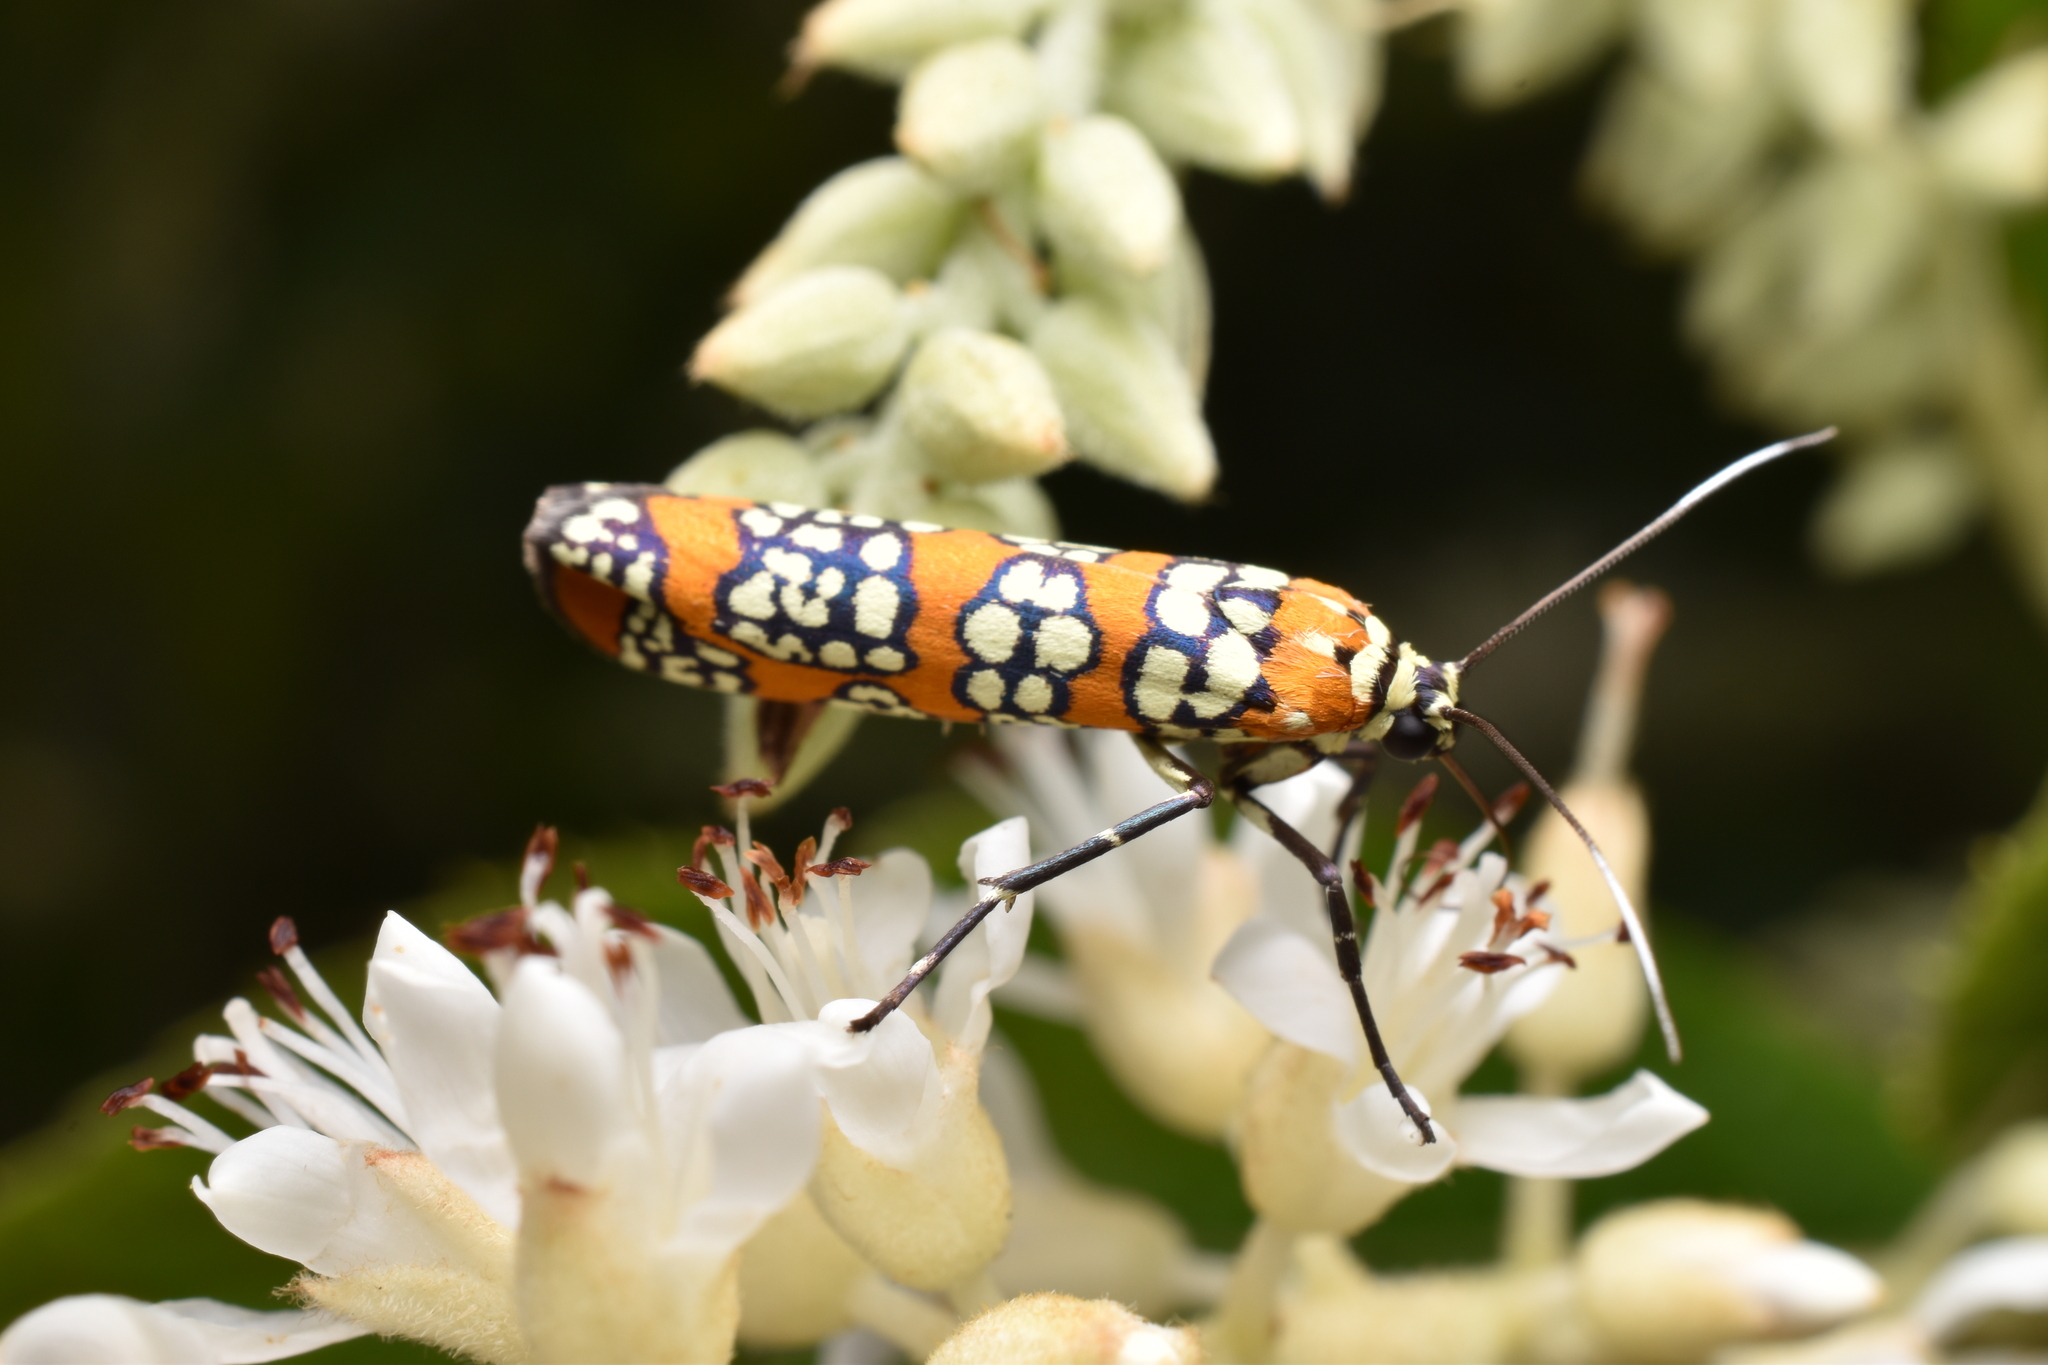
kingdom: Animalia
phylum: Arthropoda
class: Insecta
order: Lepidoptera
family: Attevidae
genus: Atteva
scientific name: Atteva punctella
